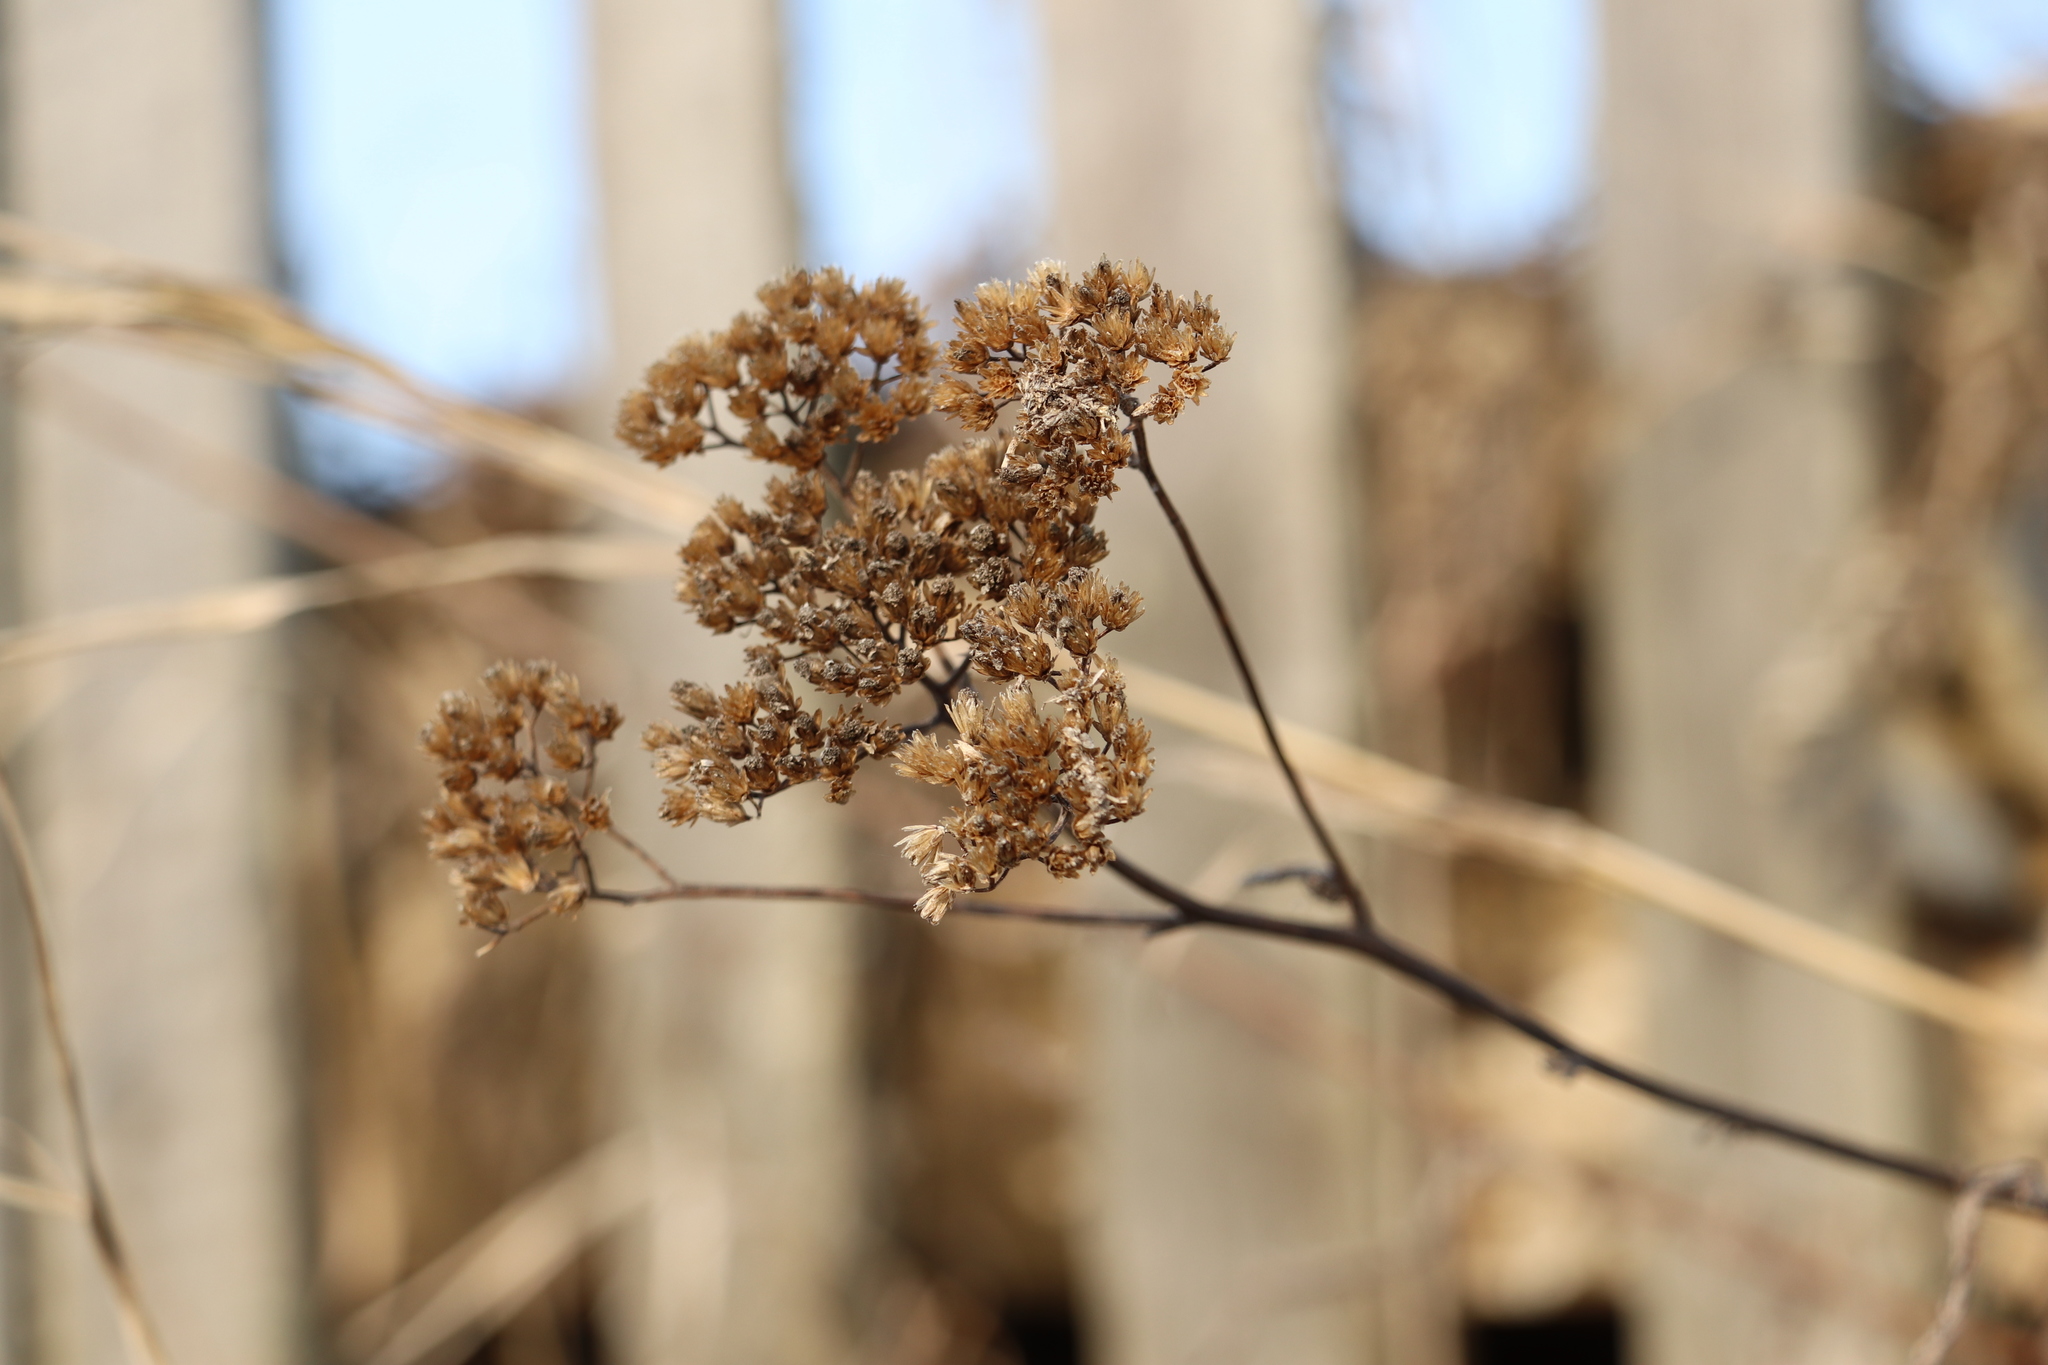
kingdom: Plantae
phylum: Tracheophyta
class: Magnoliopsida
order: Asterales
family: Asteraceae
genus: Achillea
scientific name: Achillea millefolium
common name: Yarrow
